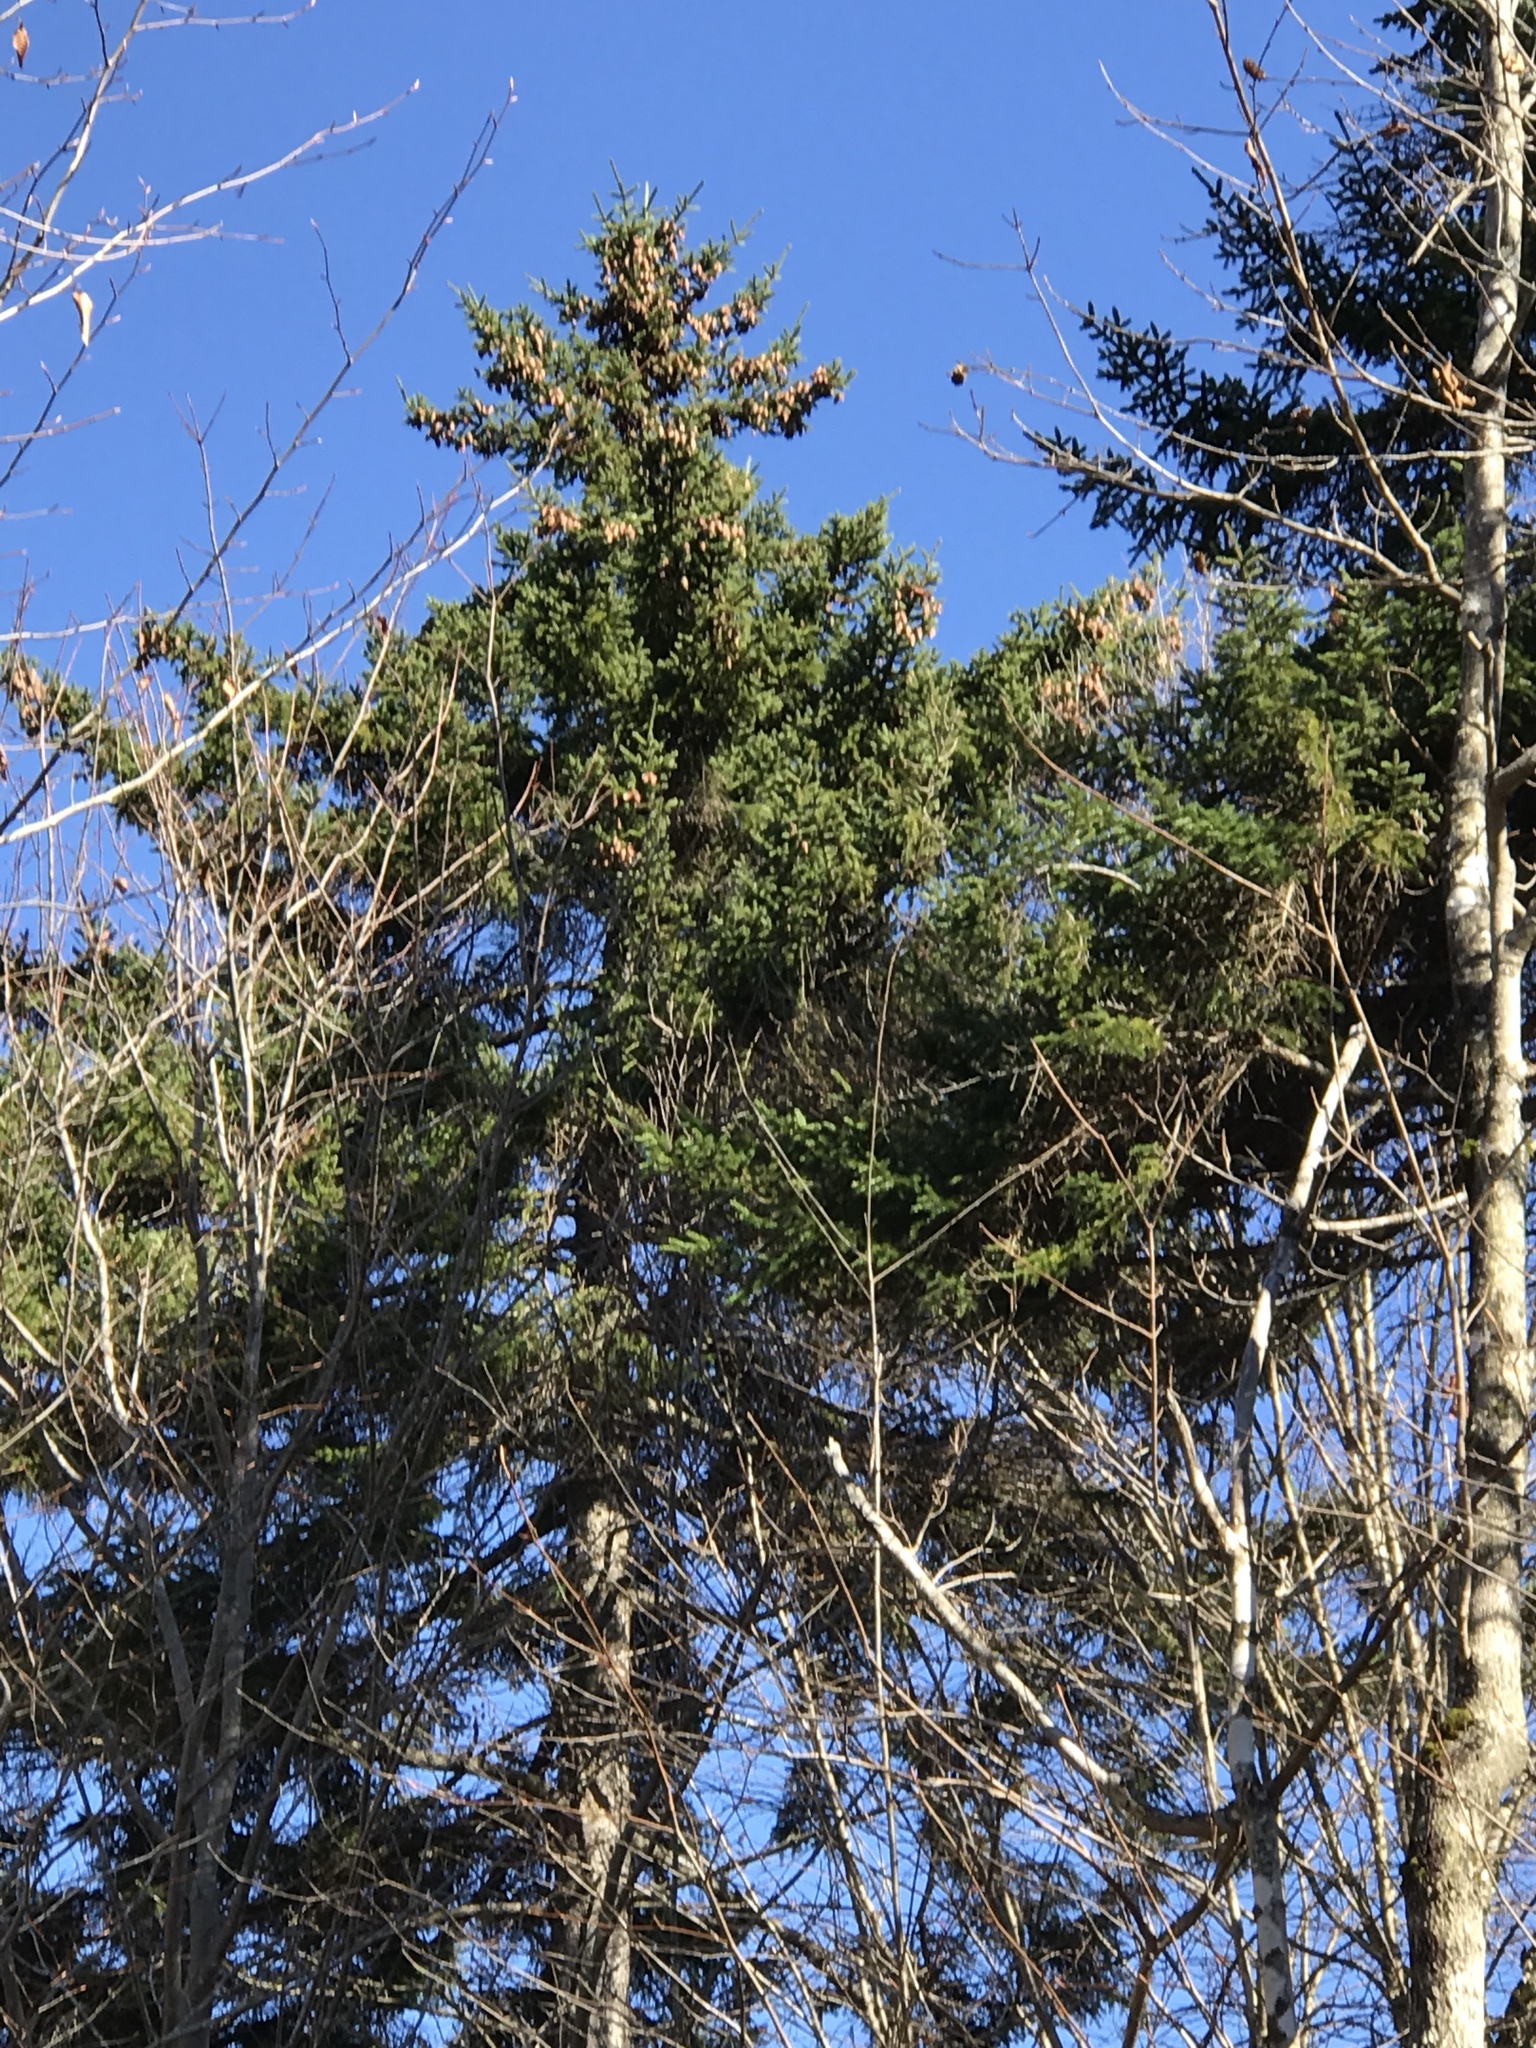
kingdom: Plantae
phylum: Tracheophyta
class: Pinopsida
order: Pinales
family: Pinaceae
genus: Picea
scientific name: Picea rubens
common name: Red spruce
